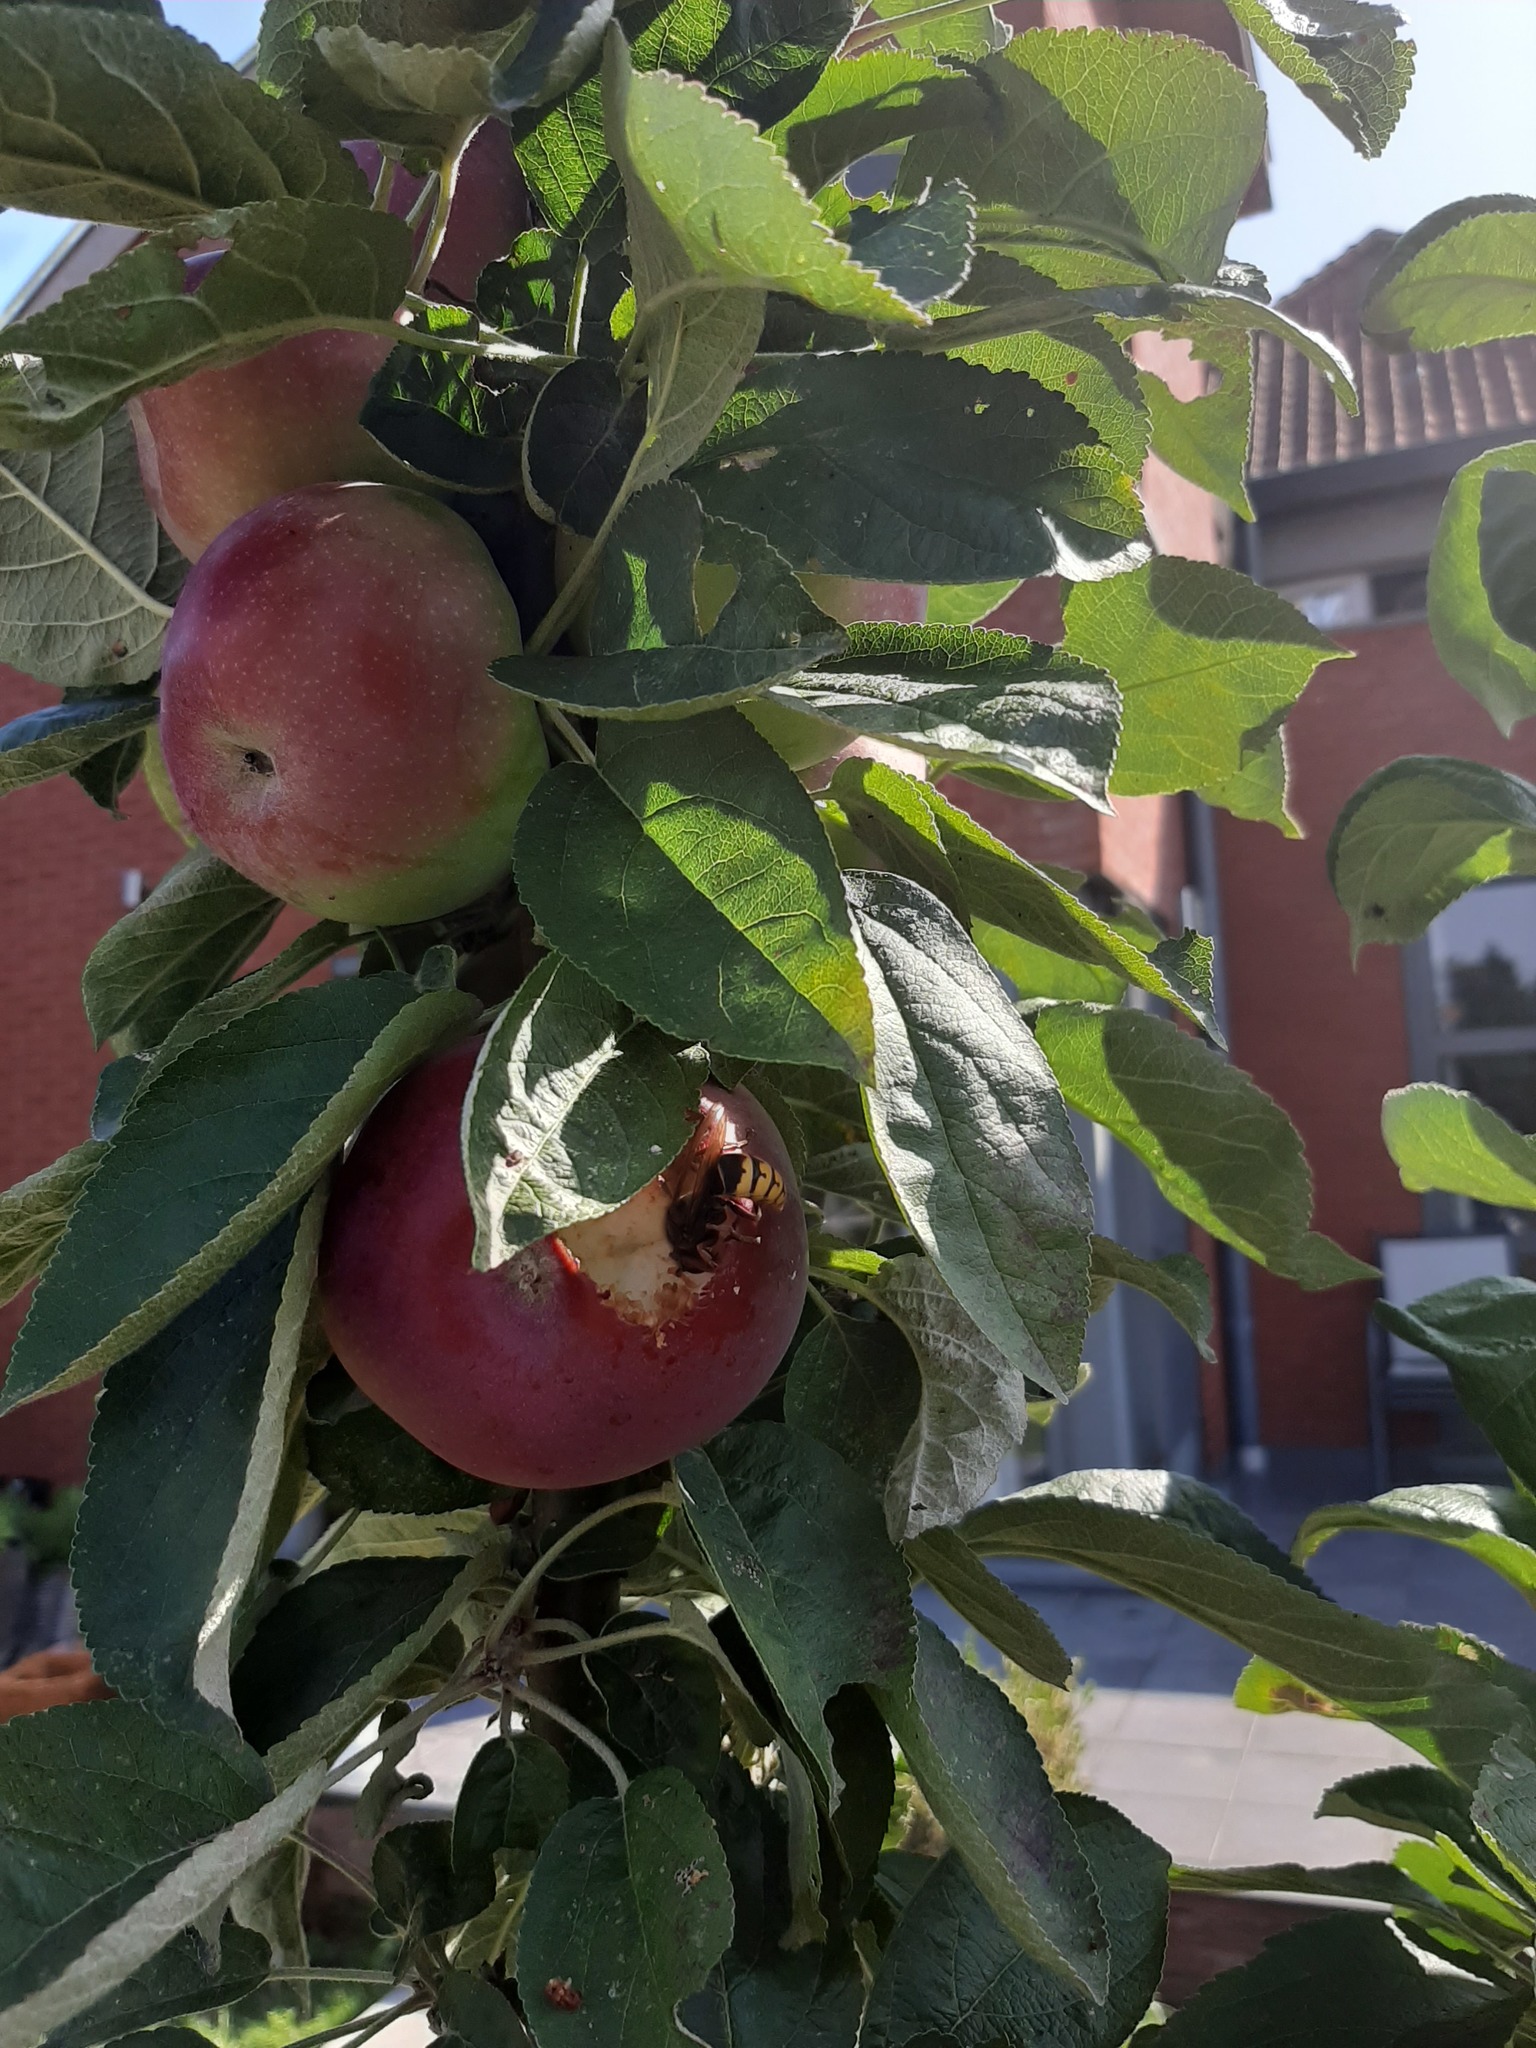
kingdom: Animalia
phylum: Arthropoda
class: Insecta
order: Hymenoptera
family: Vespidae
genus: Vespa
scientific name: Vespa crabro
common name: Hornet
